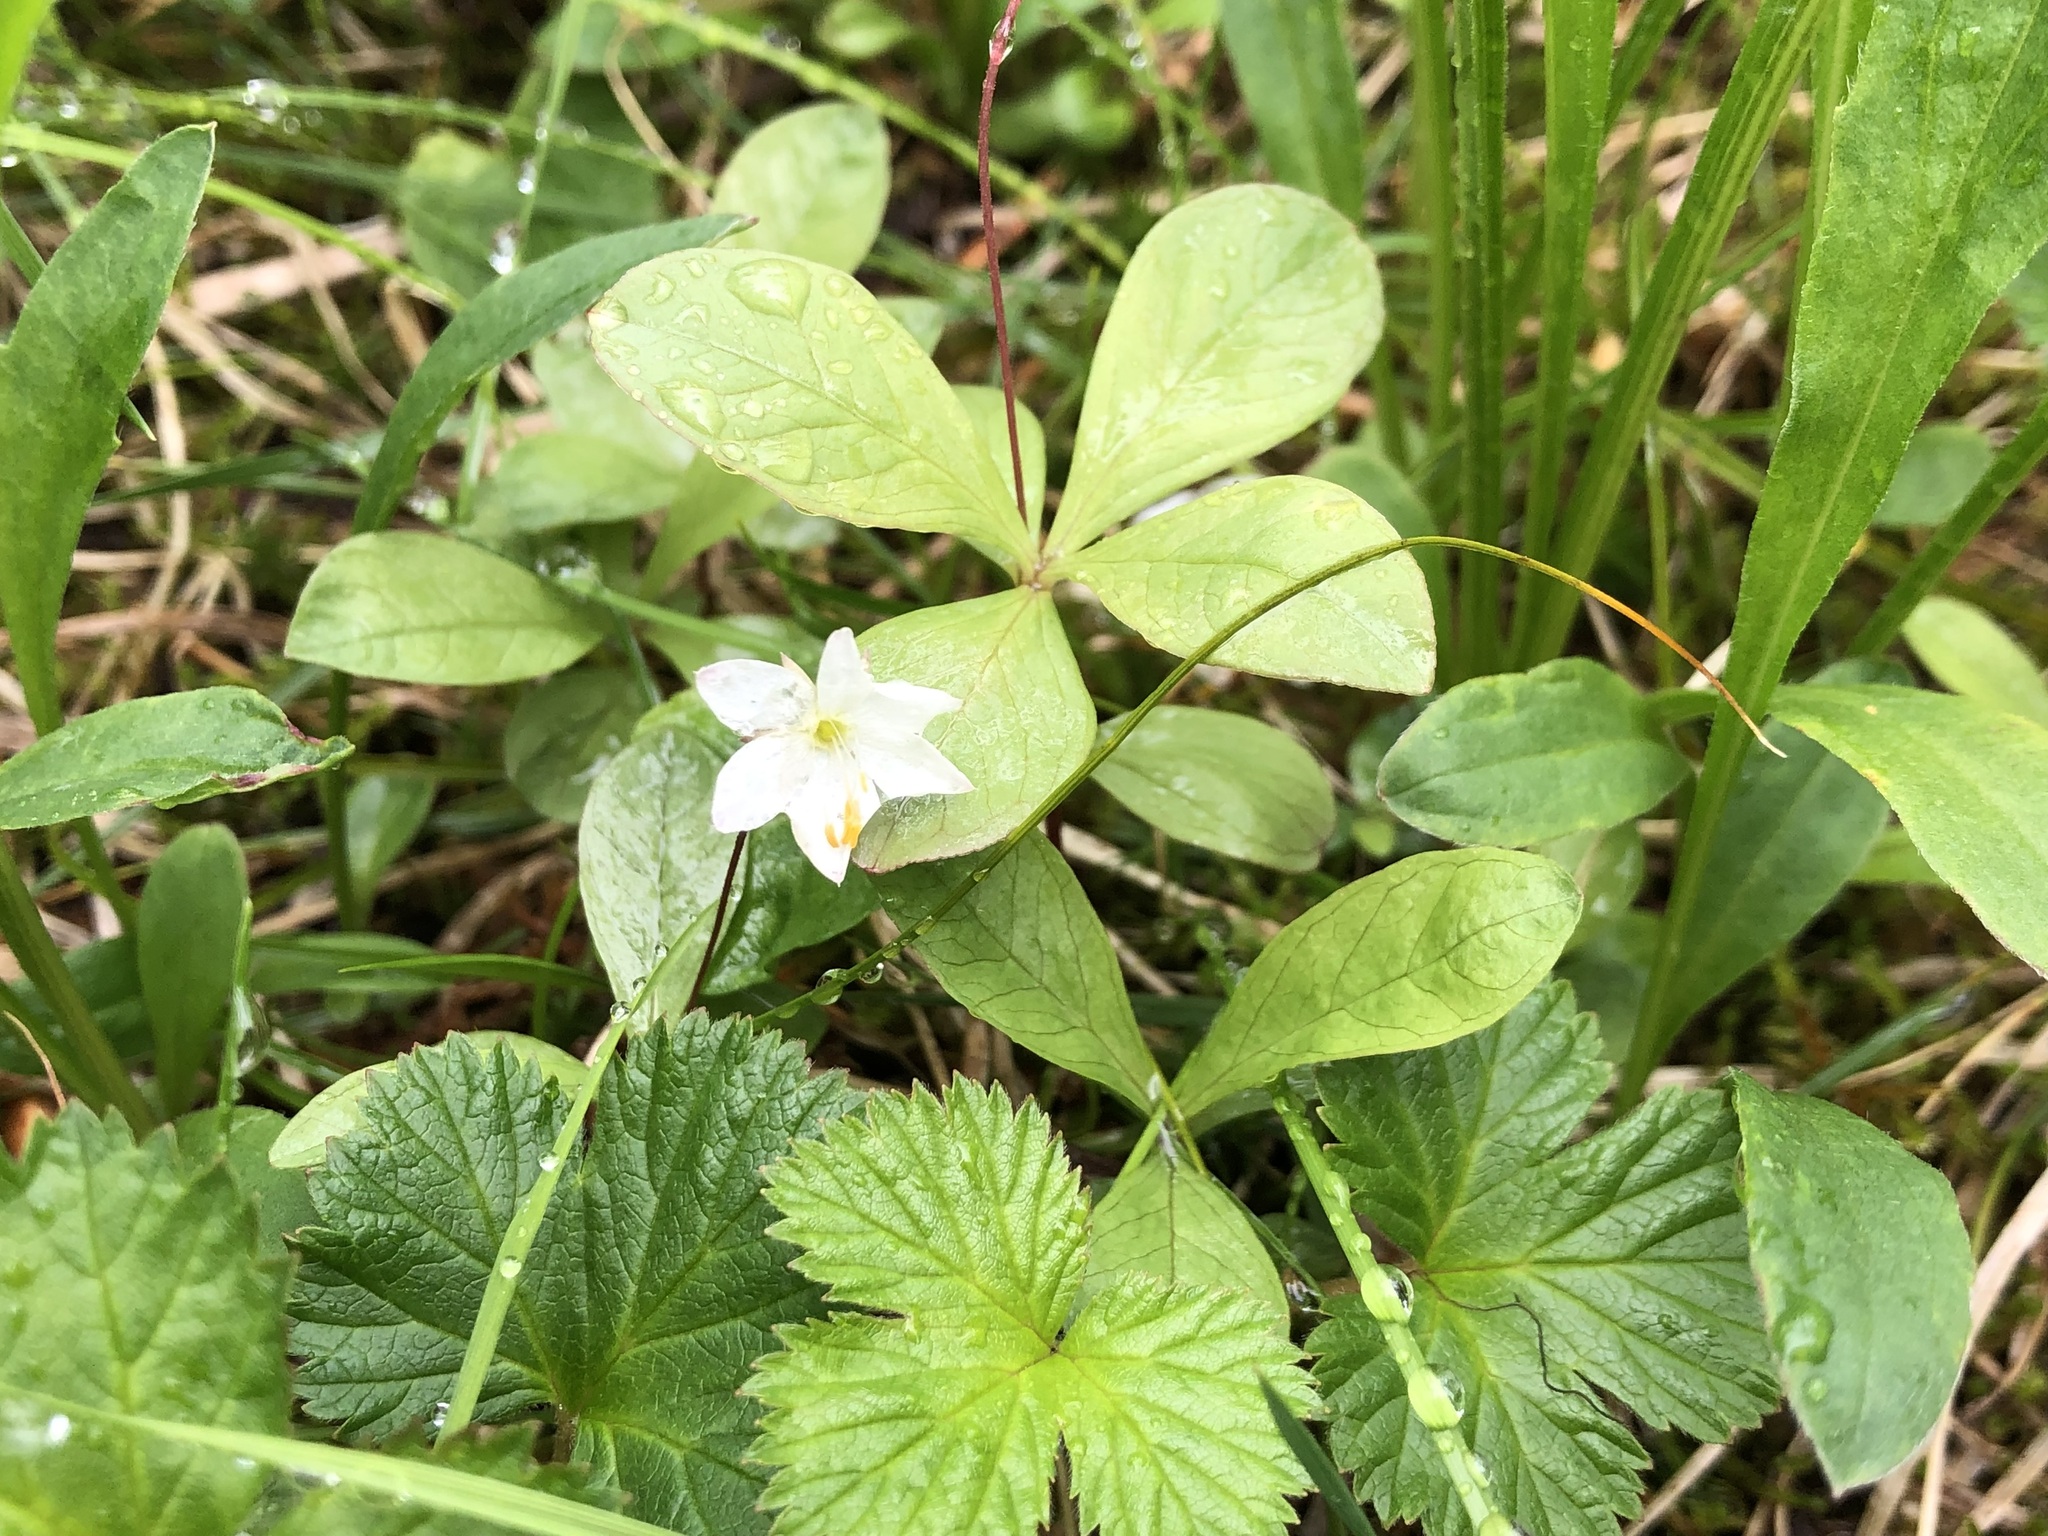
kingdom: Plantae
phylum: Tracheophyta
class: Magnoliopsida
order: Ericales
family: Primulaceae
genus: Lysimachia
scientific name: Lysimachia europaea
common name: Arctic starflower
